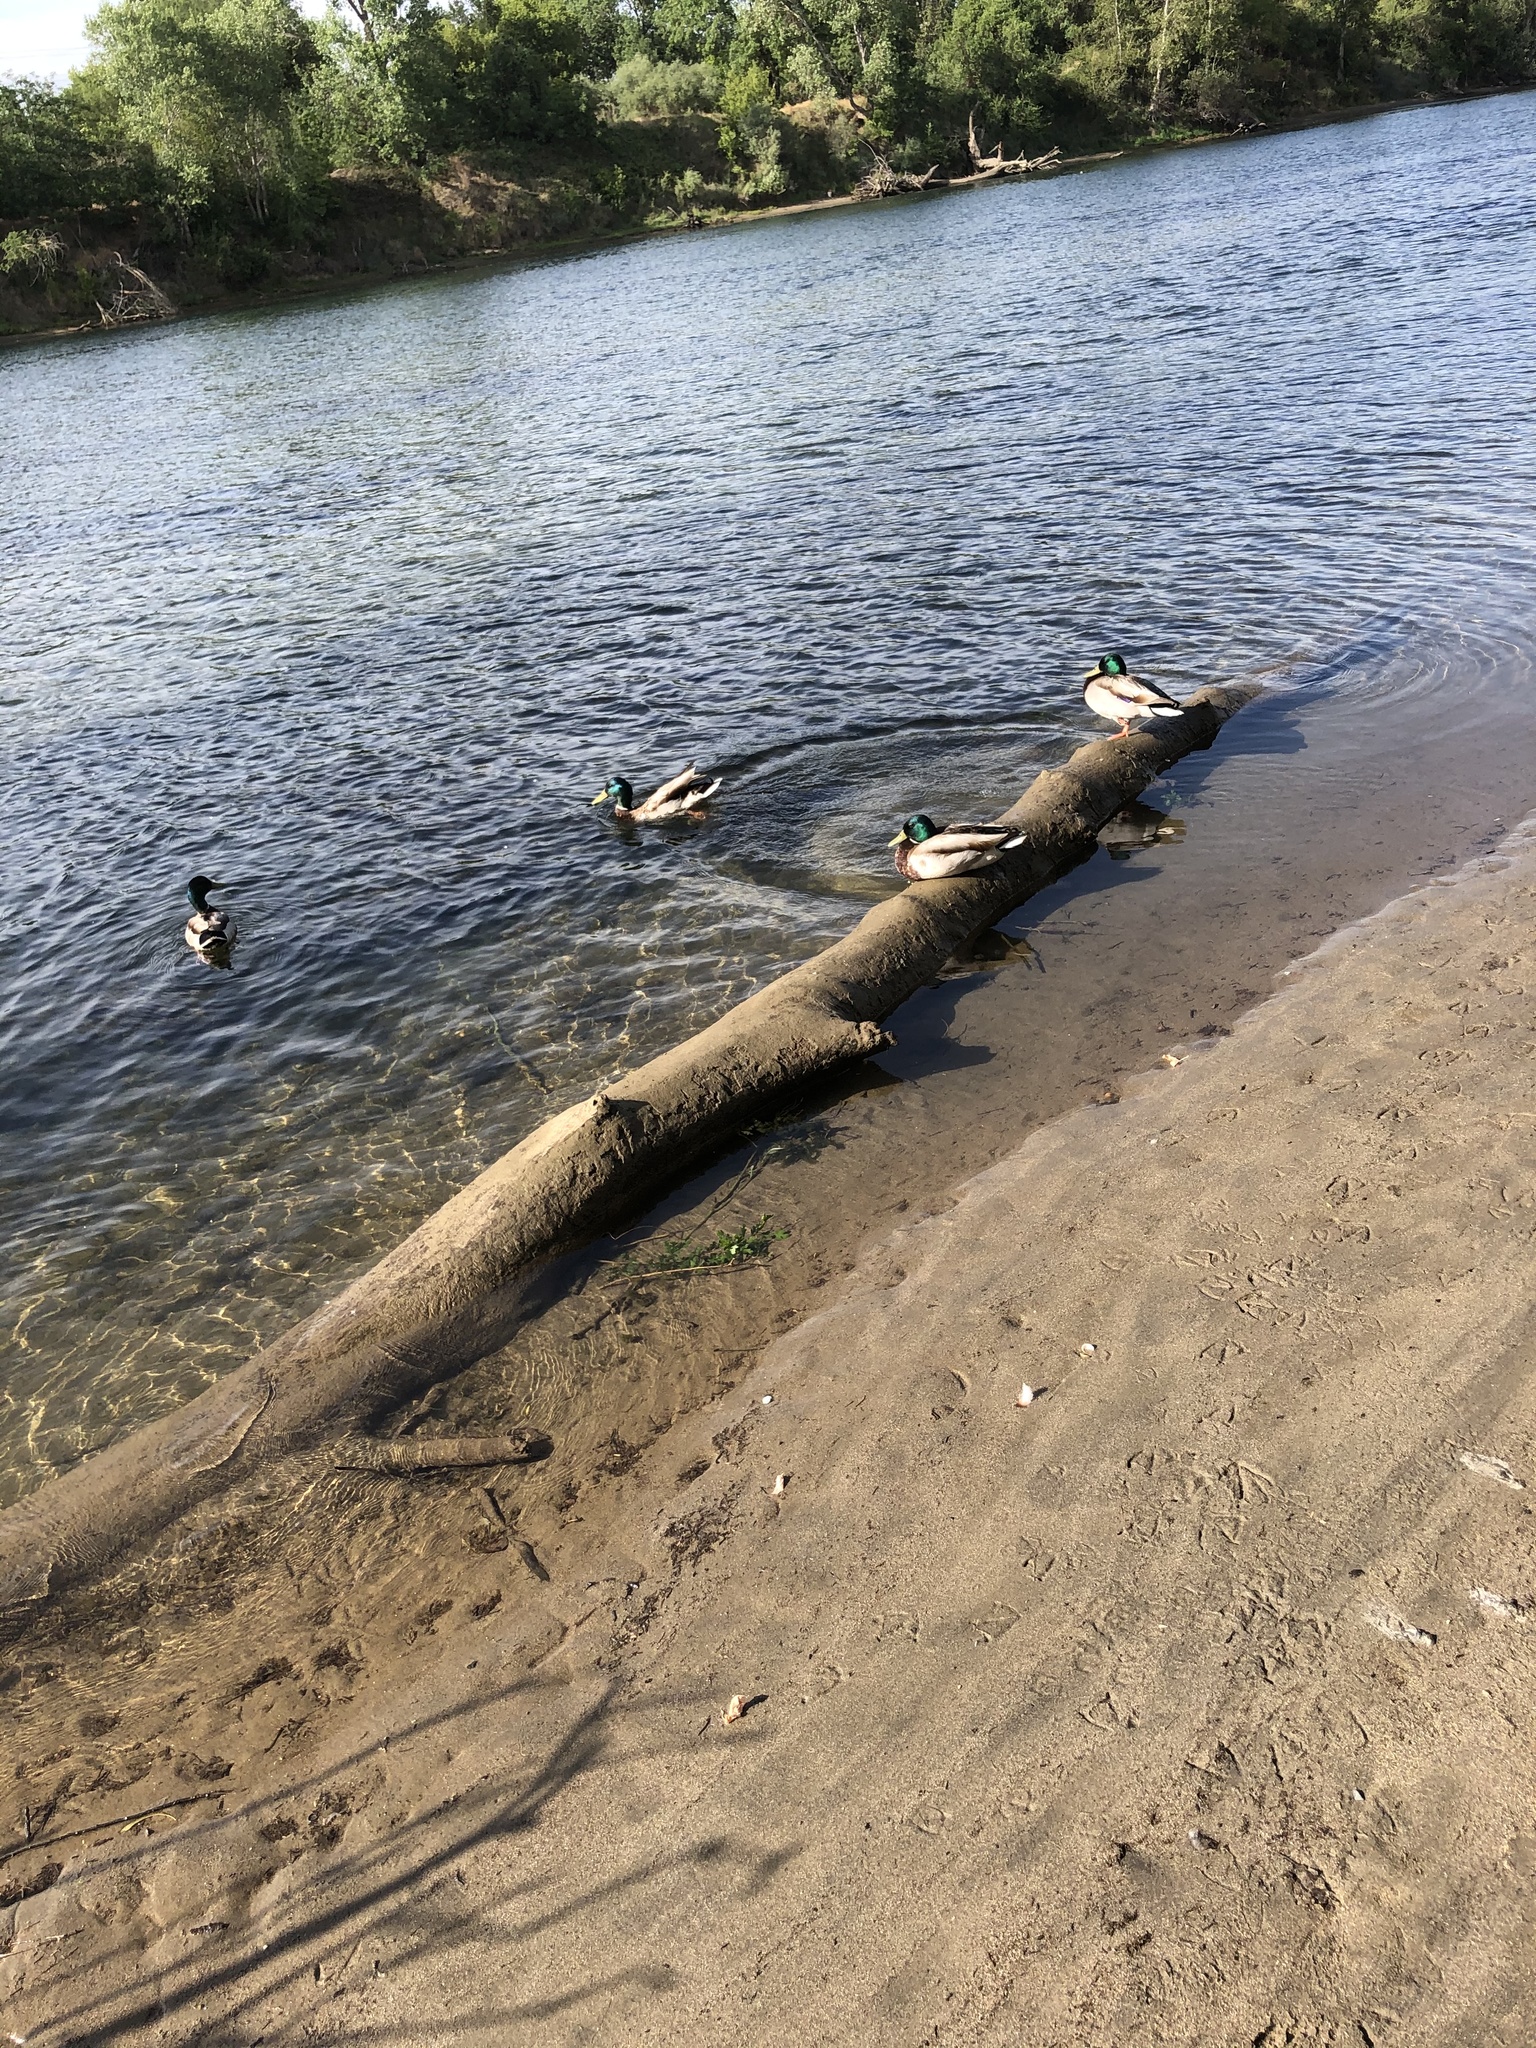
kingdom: Animalia
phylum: Chordata
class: Aves
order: Anseriformes
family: Anatidae
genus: Anas
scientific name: Anas platyrhynchos
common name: Mallard
